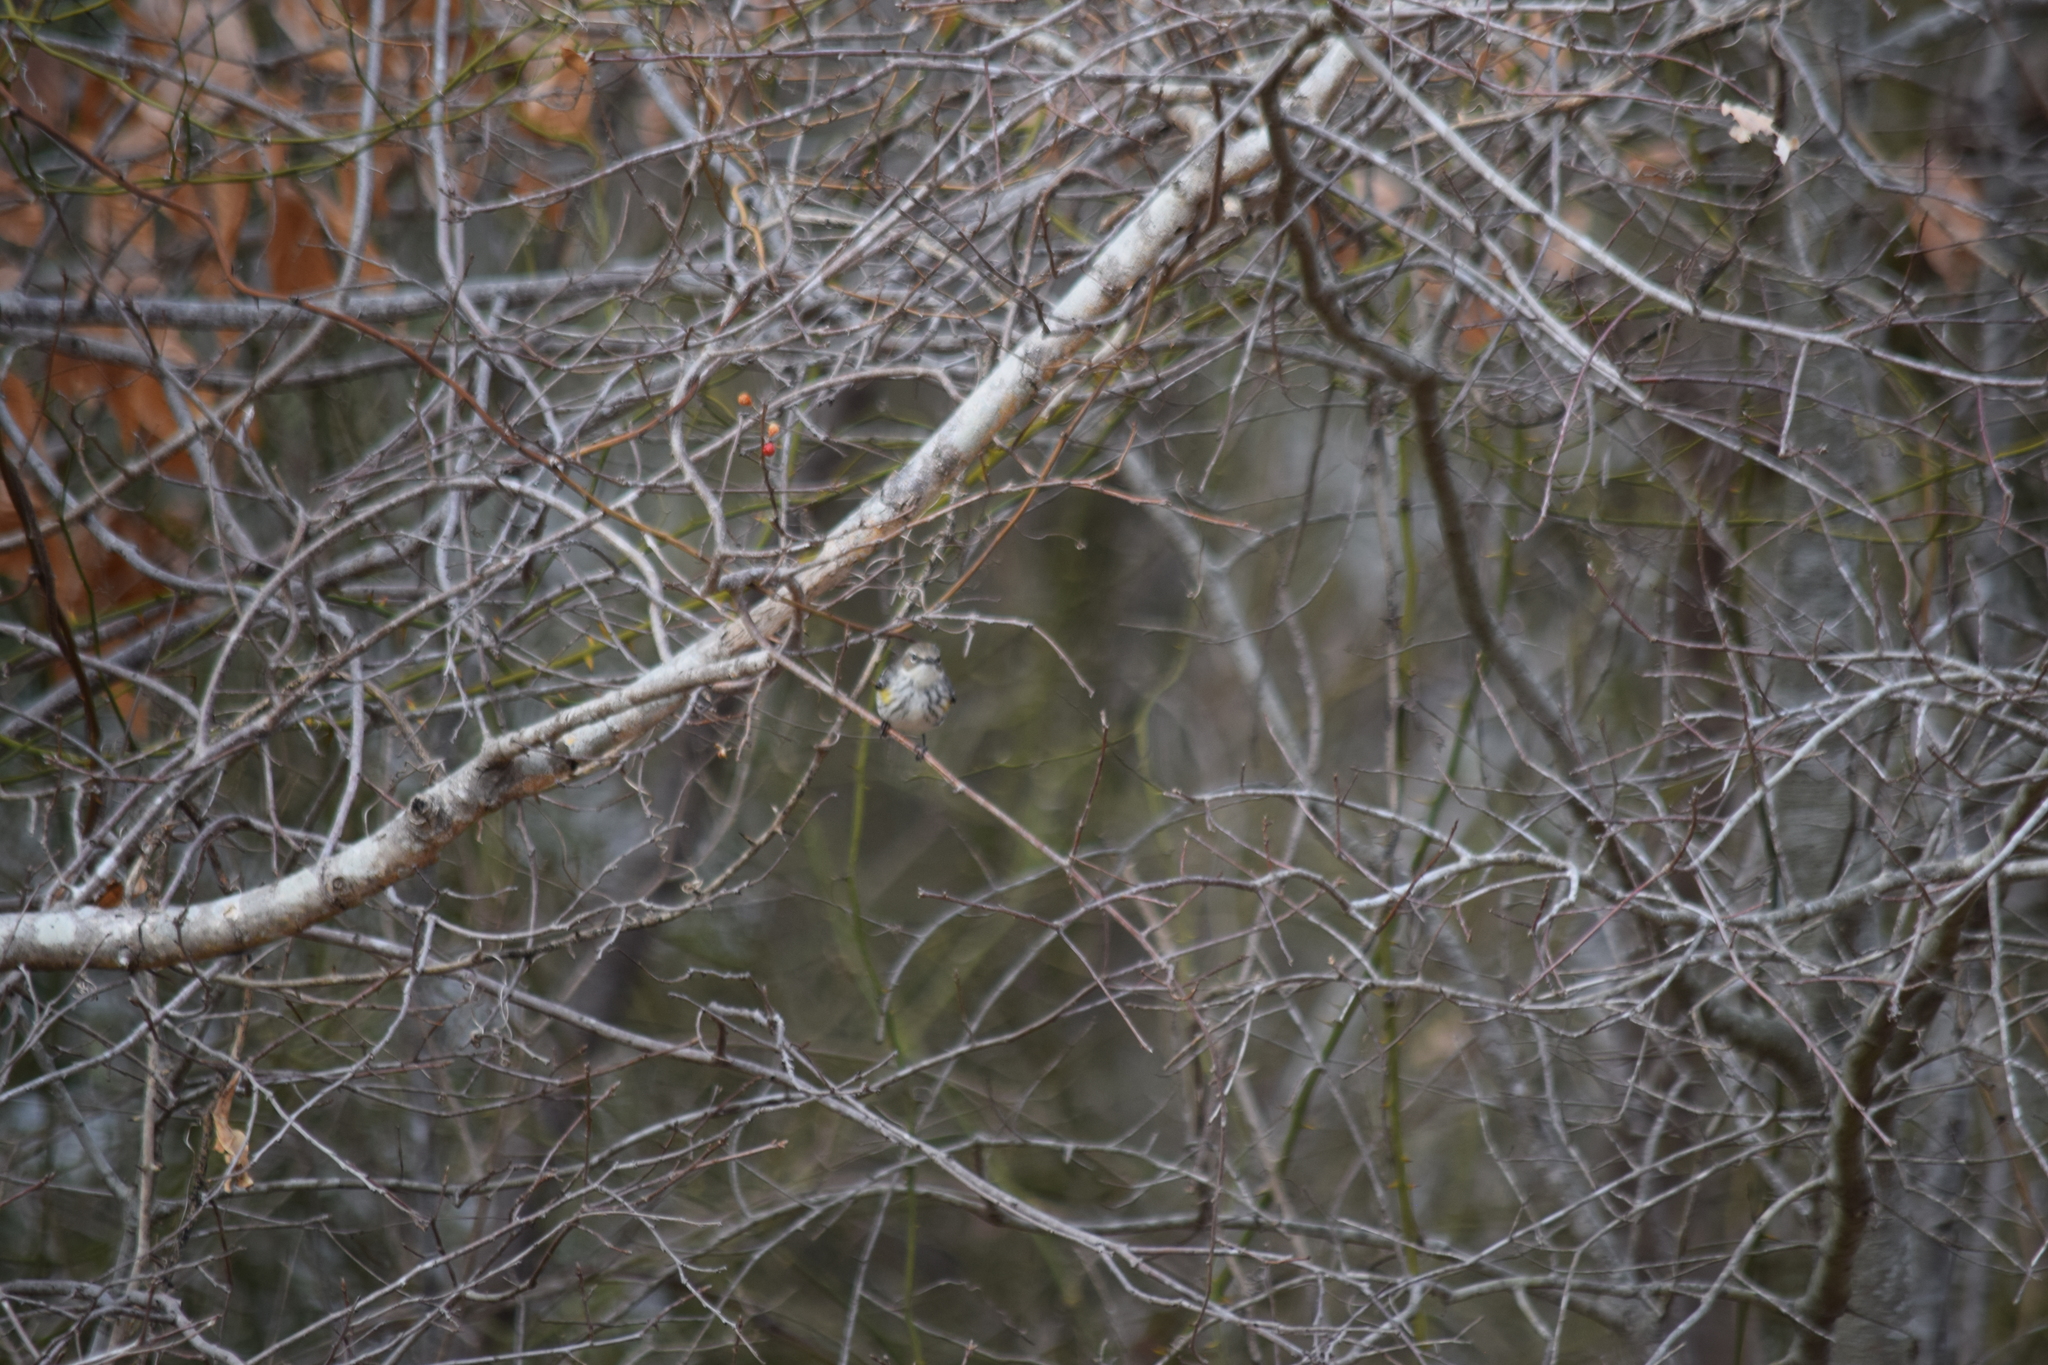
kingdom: Animalia
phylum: Chordata
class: Aves
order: Passeriformes
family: Parulidae
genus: Setophaga
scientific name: Setophaga coronata
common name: Myrtle warbler
